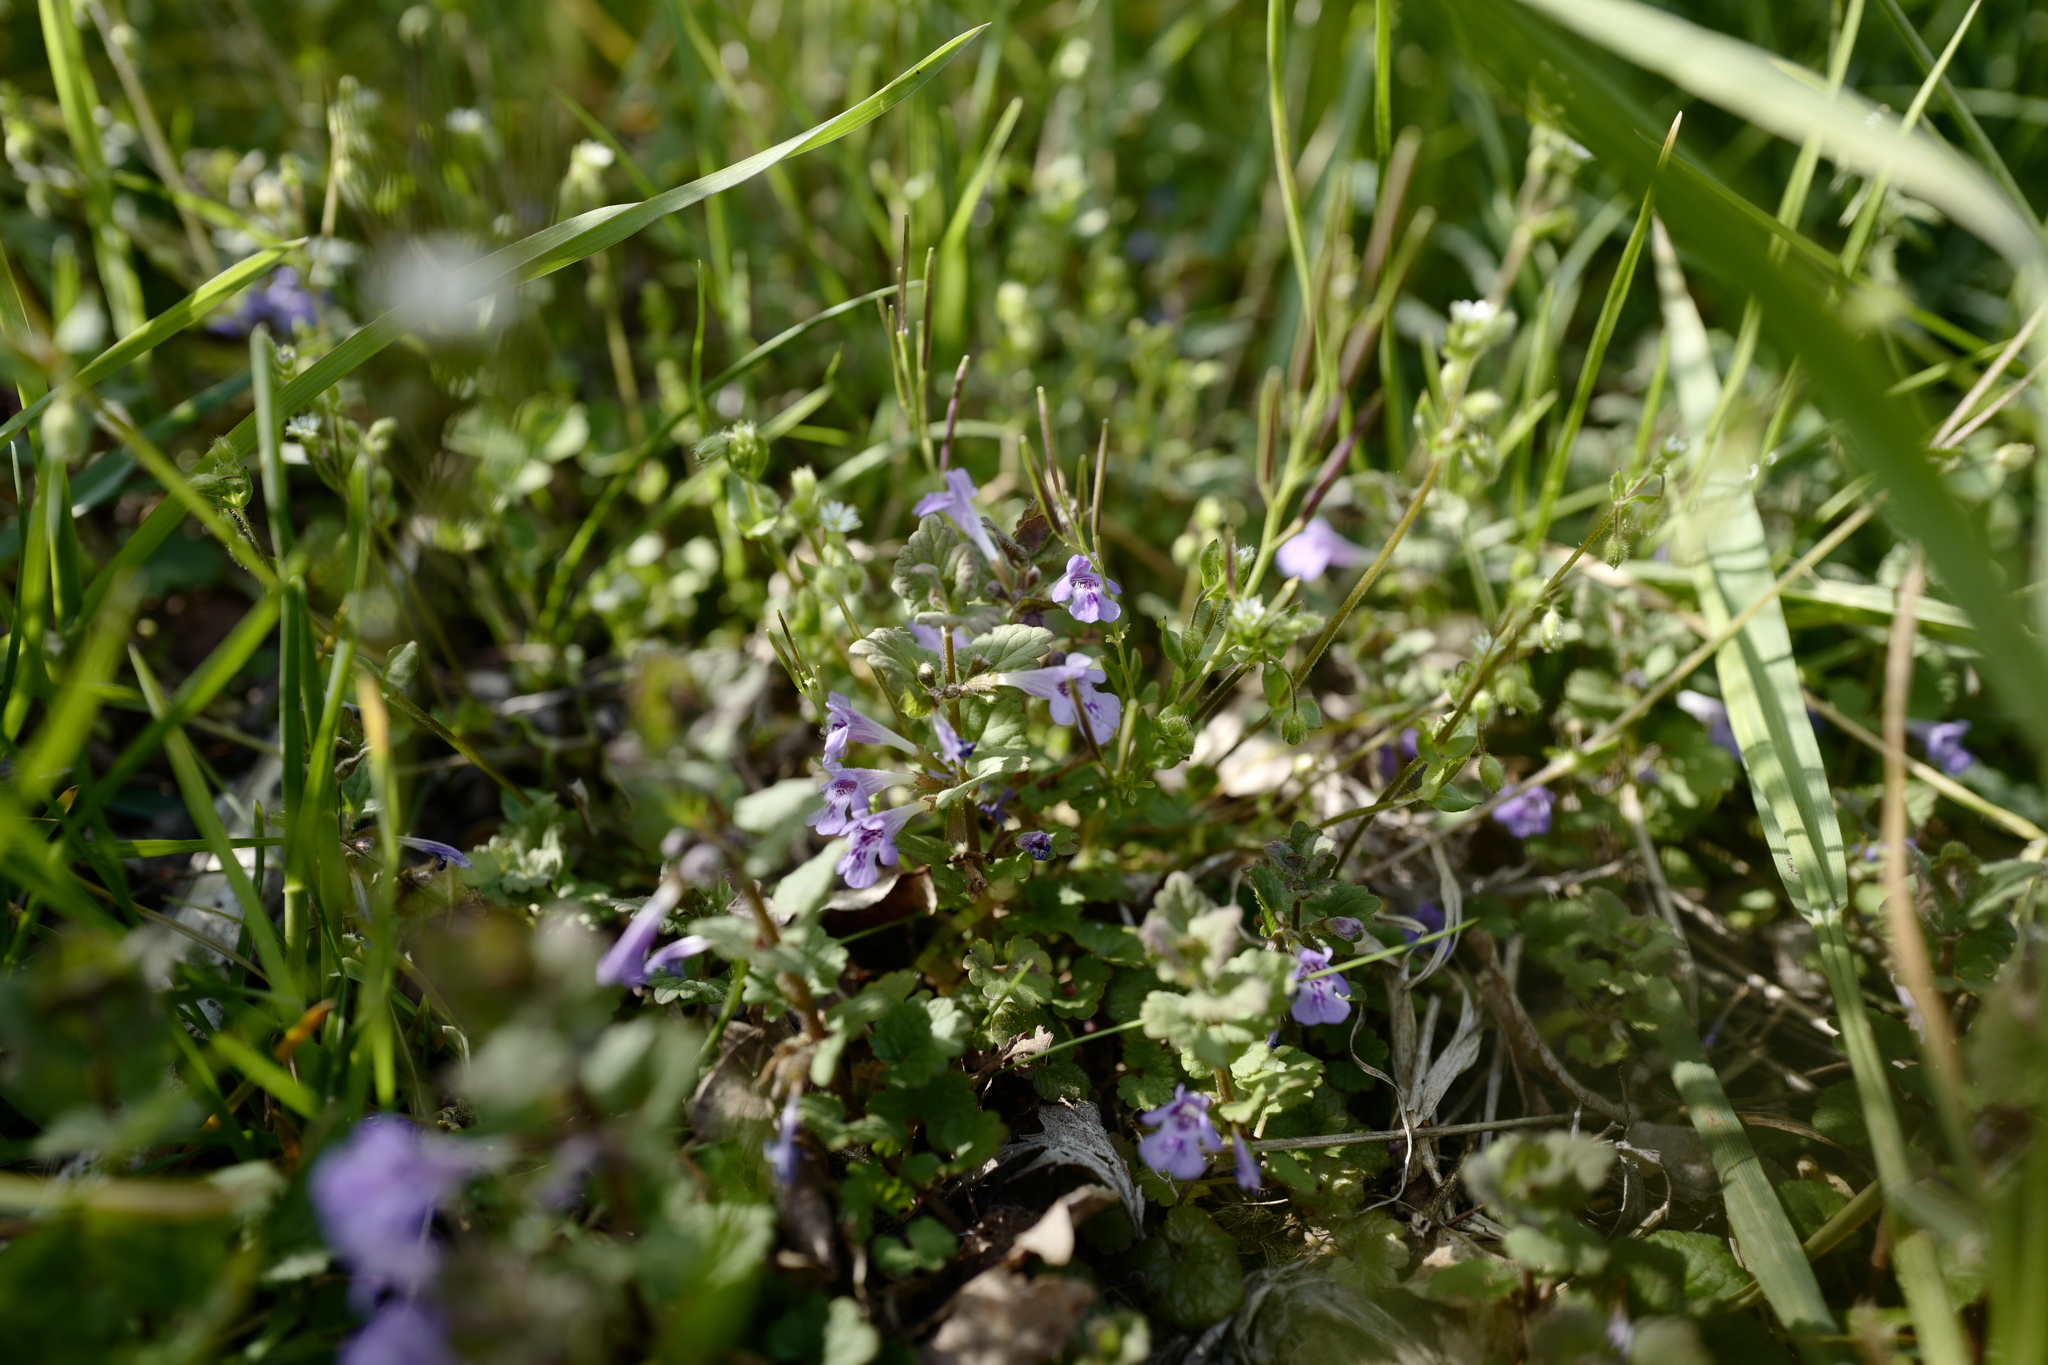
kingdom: Plantae
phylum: Tracheophyta
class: Magnoliopsida
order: Lamiales
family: Lamiaceae
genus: Glechoma
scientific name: Glechoma hederacea
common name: Ground ivy
